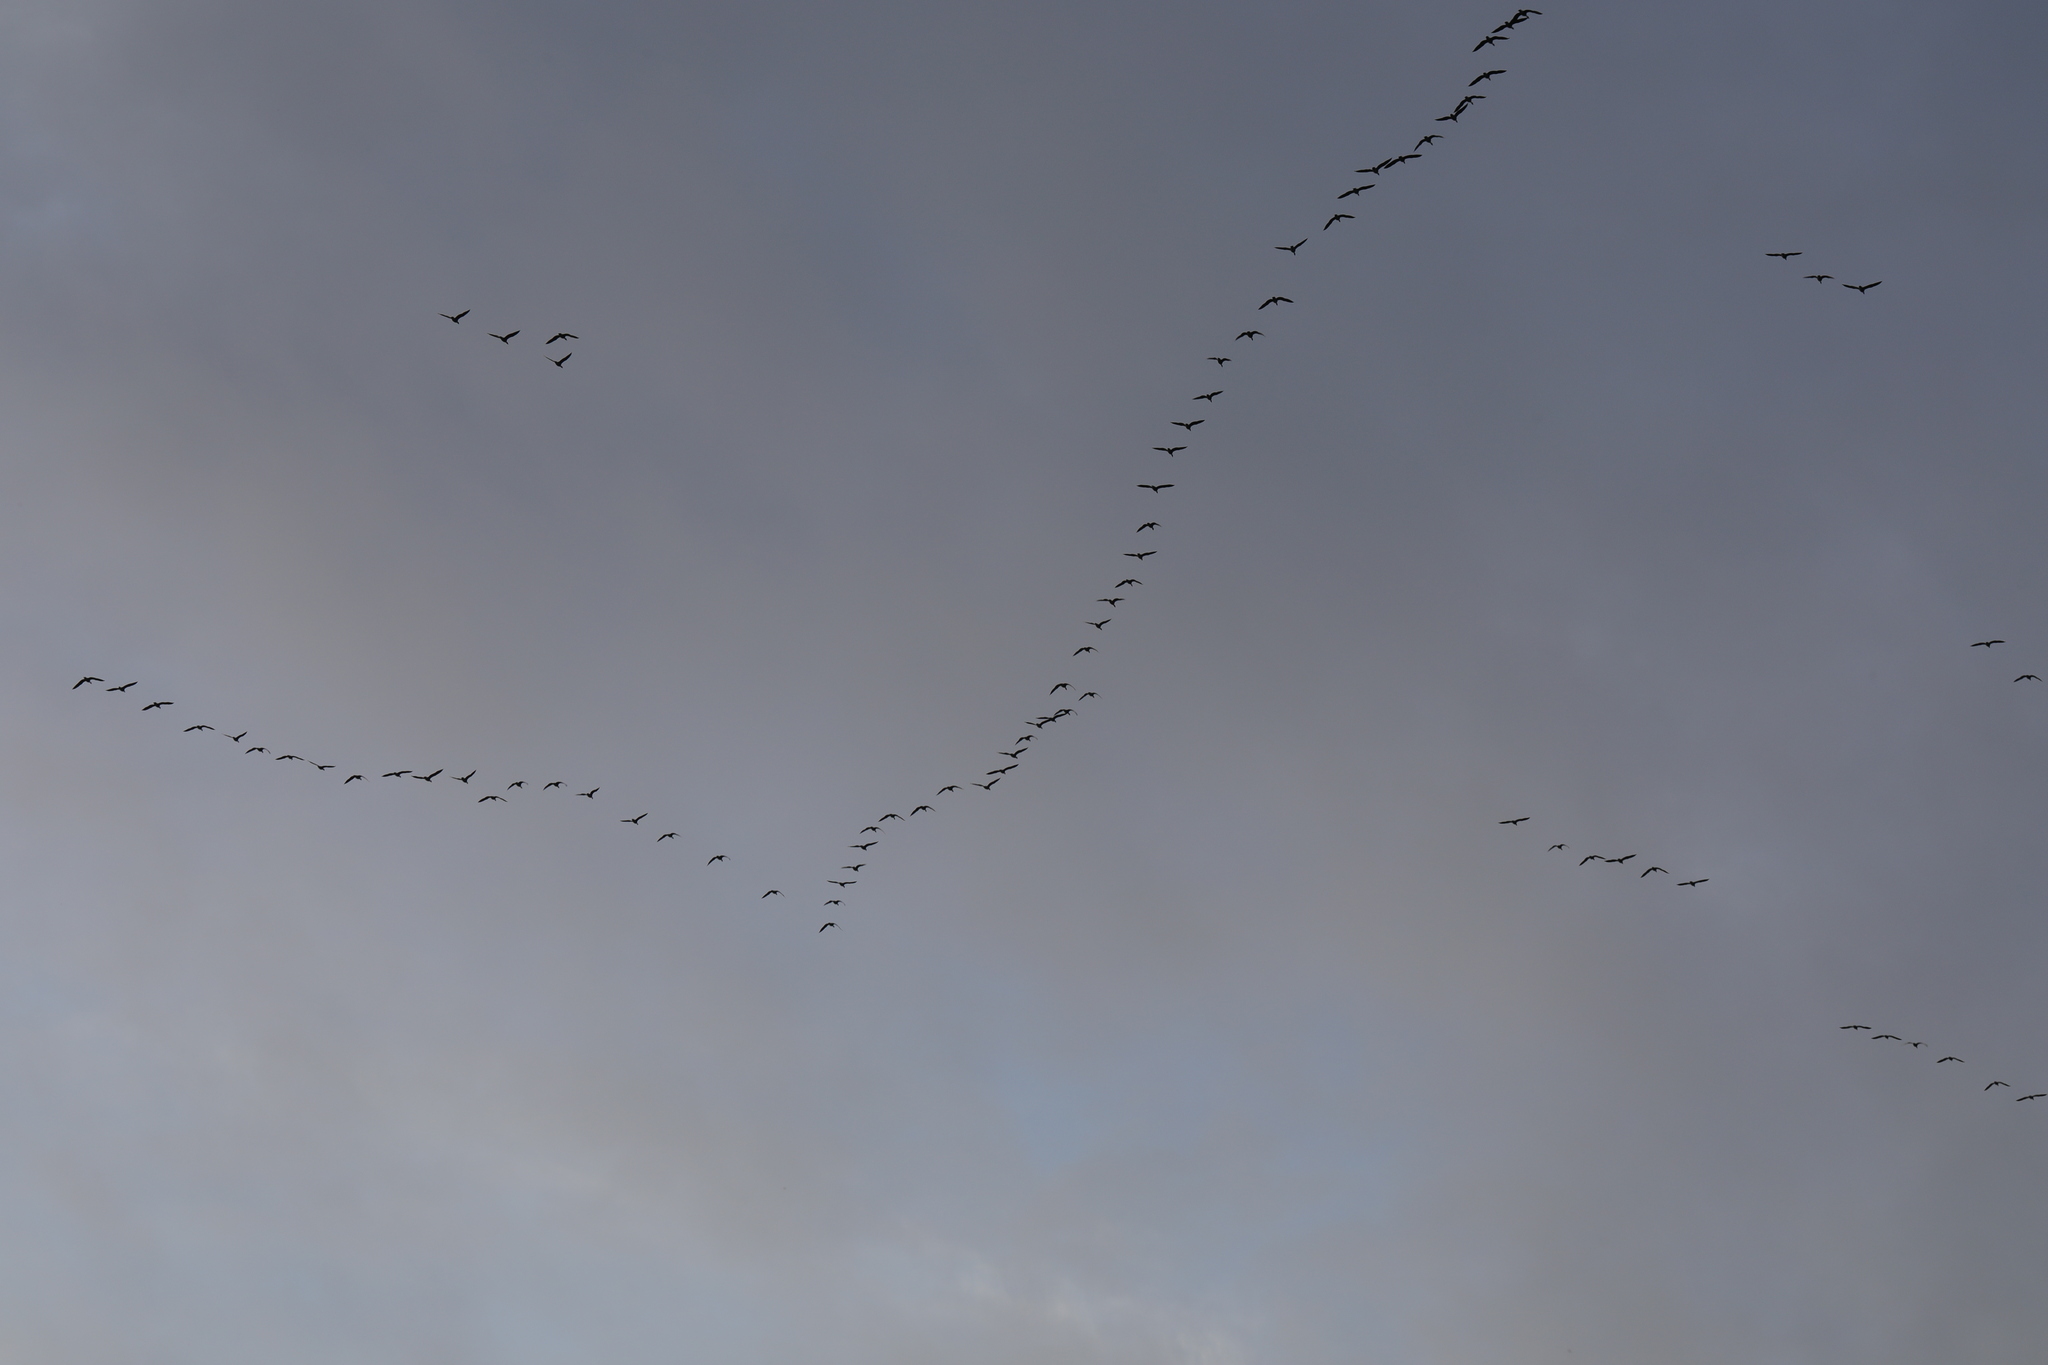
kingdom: Animalia
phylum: Chordata
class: Aves
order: Anseriformes
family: Anatidae
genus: Anser
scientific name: Anser brachyrhynchus
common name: Pink-footed goose
